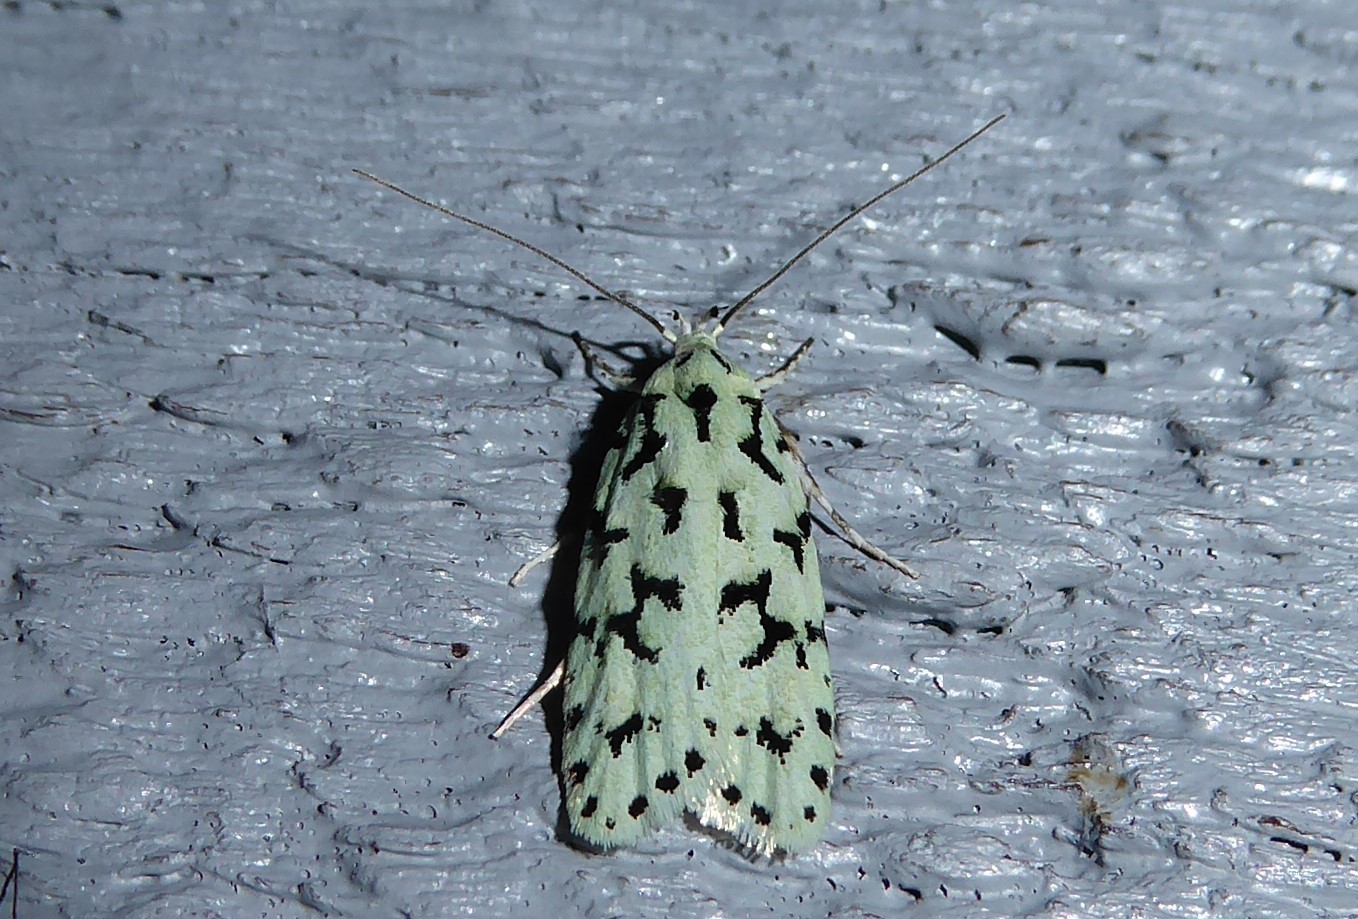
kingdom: Animalia
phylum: Arthropoda
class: Insecta
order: Lepidoptera
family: Oecophoridae
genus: Izatha
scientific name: Izatha huttoni
